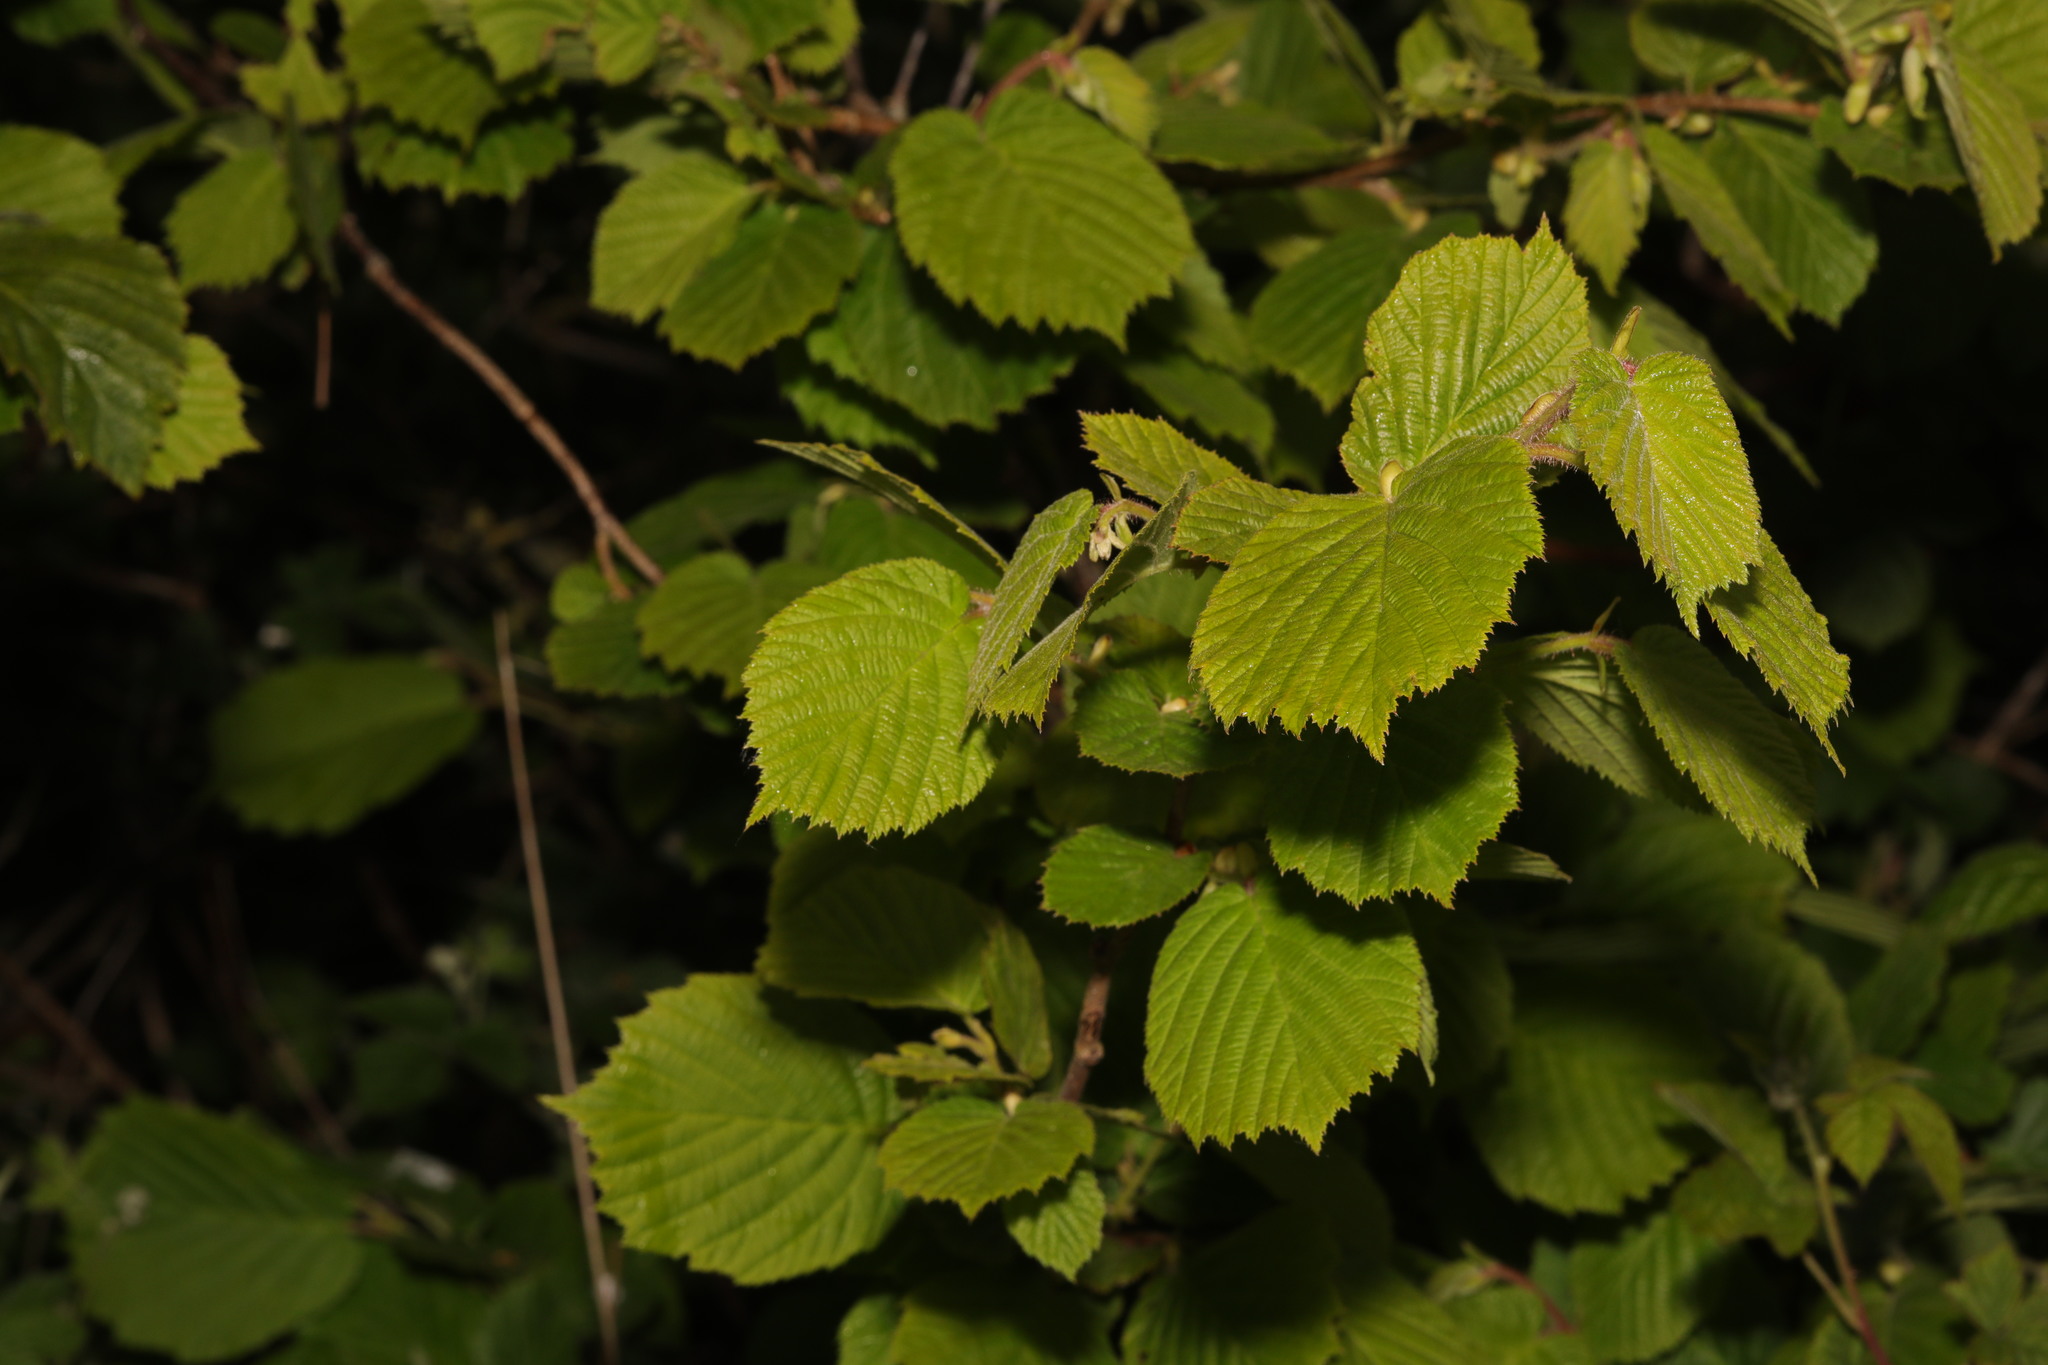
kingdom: Plantae
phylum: Tracheophyta
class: Magnoliopsida
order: Fagales
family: Betulaceae
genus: Corylus
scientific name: Corylus avellana
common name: European hazel
